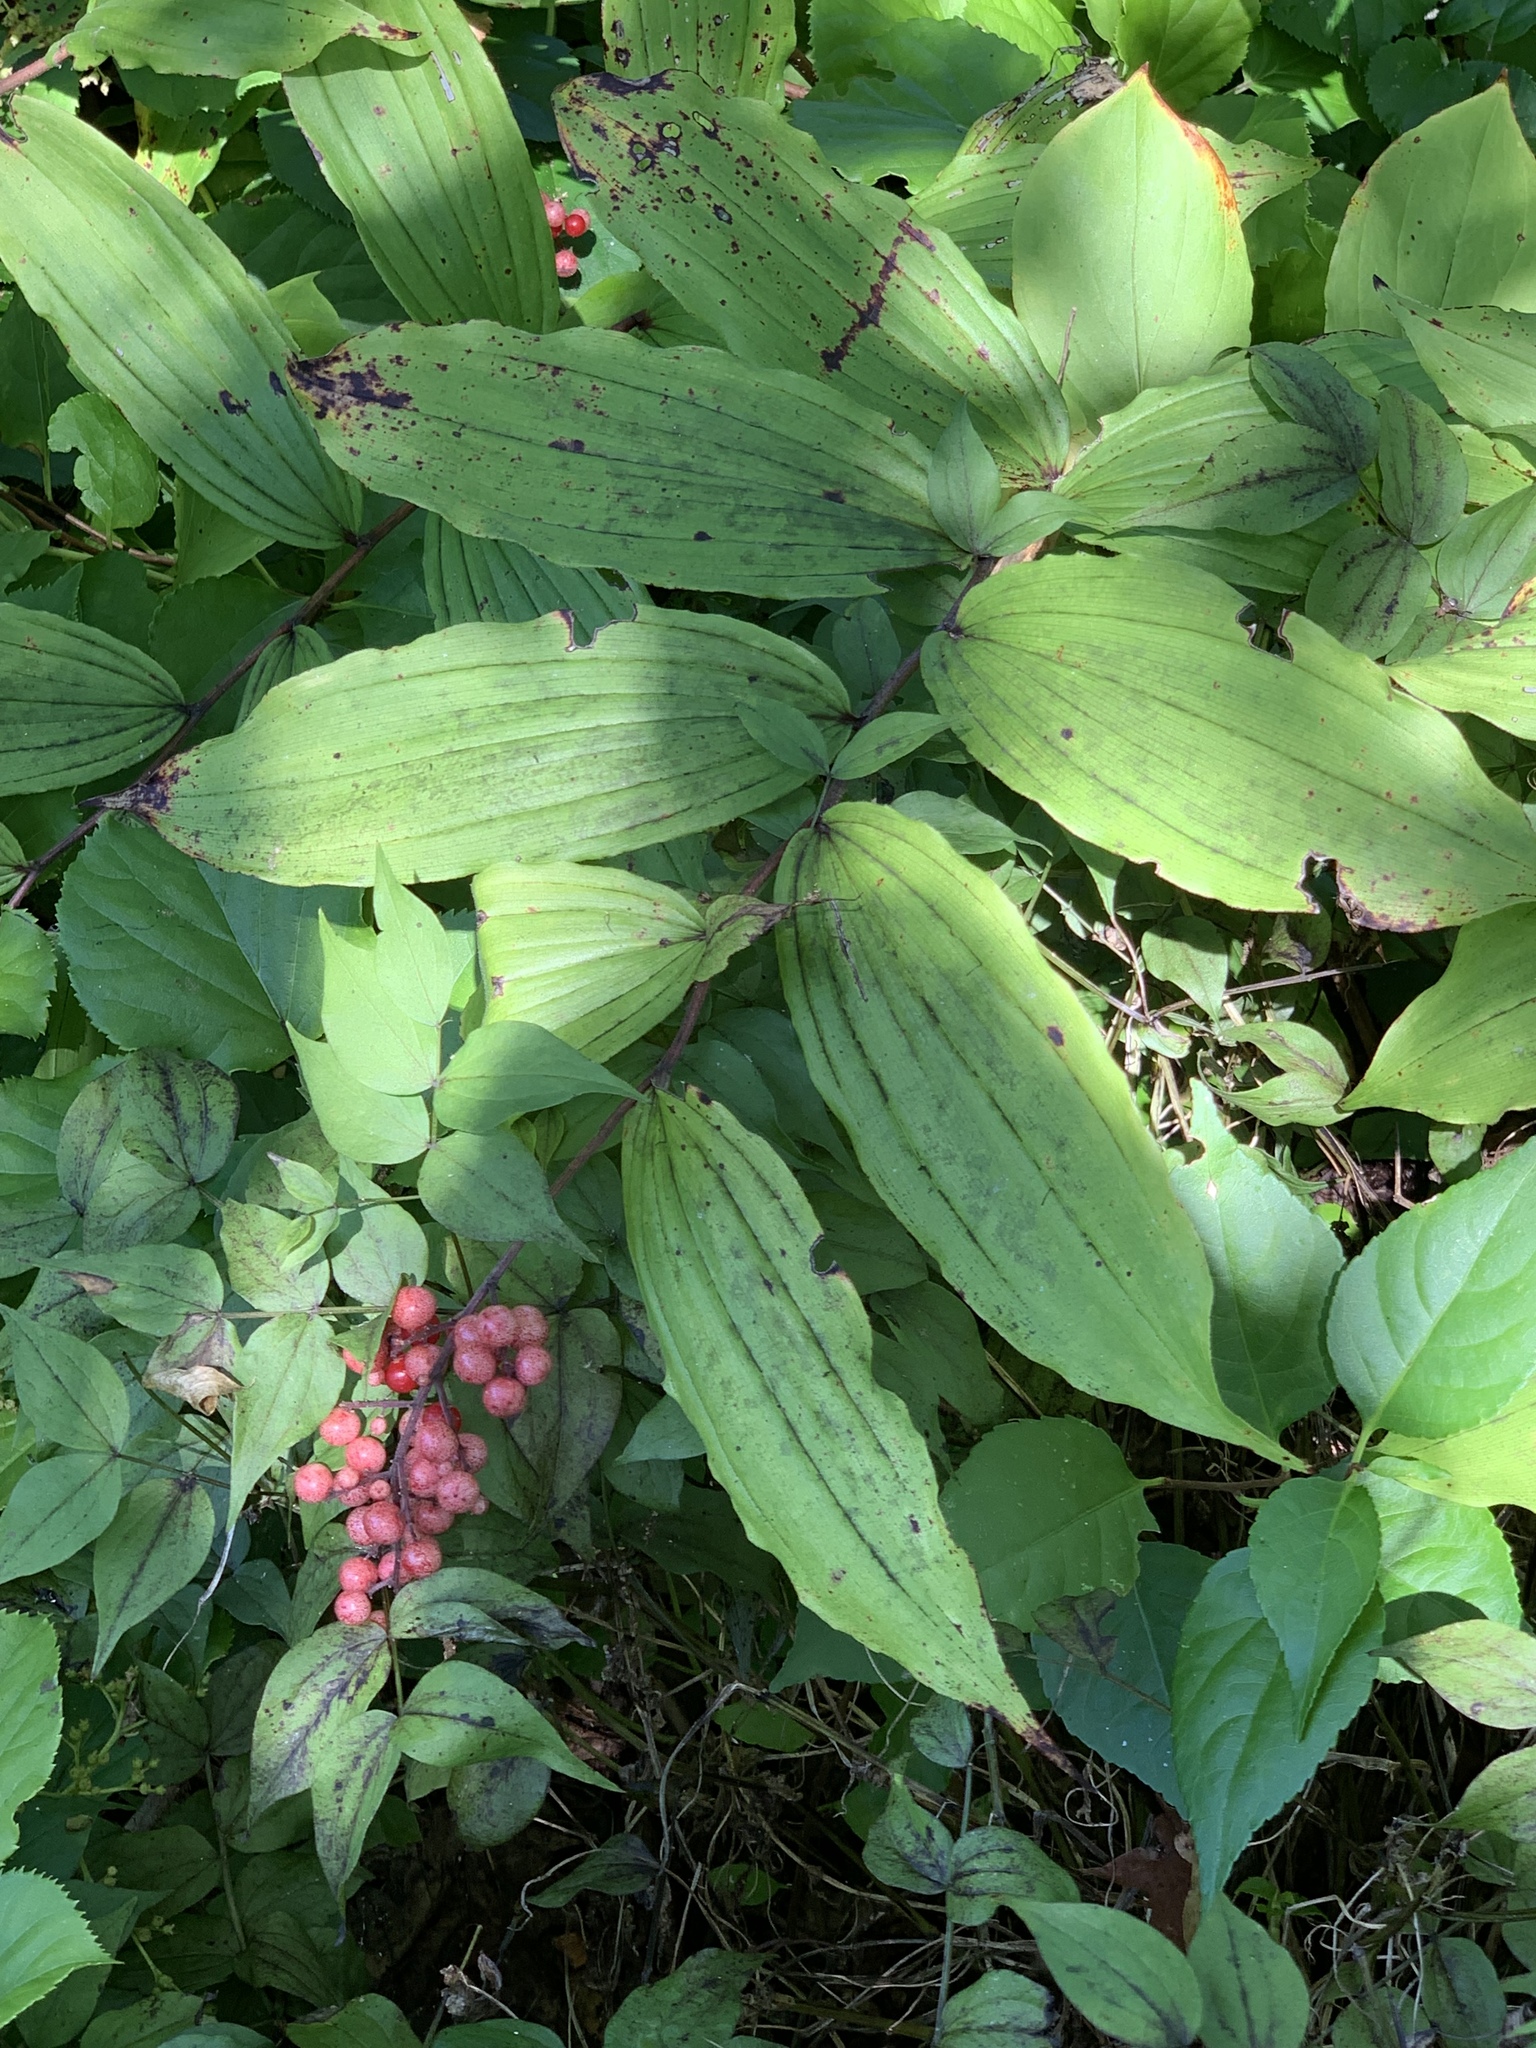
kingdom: Plantae
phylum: Tracheophyta
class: Liliopsida
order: Asparagales
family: Asparagaceae
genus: Maianthemum
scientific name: Maianthemum racemosum
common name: False spikenard
